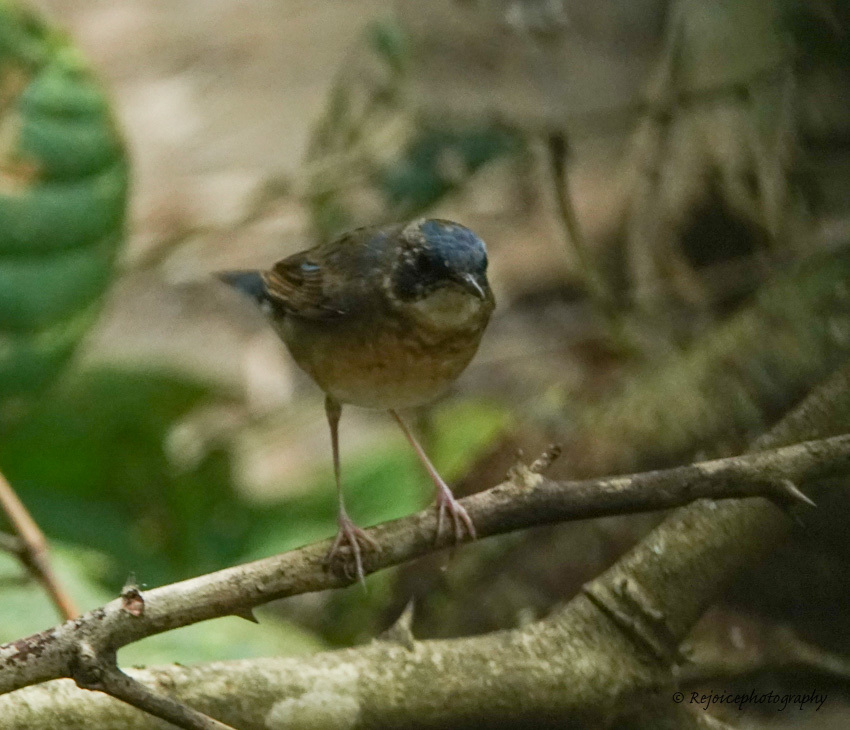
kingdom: Animalia
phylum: Chordata
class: Aves
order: Passeriformes
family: Muscicapidae
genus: Luscinia
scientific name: Luscinia cyane
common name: Siberian blue robin
